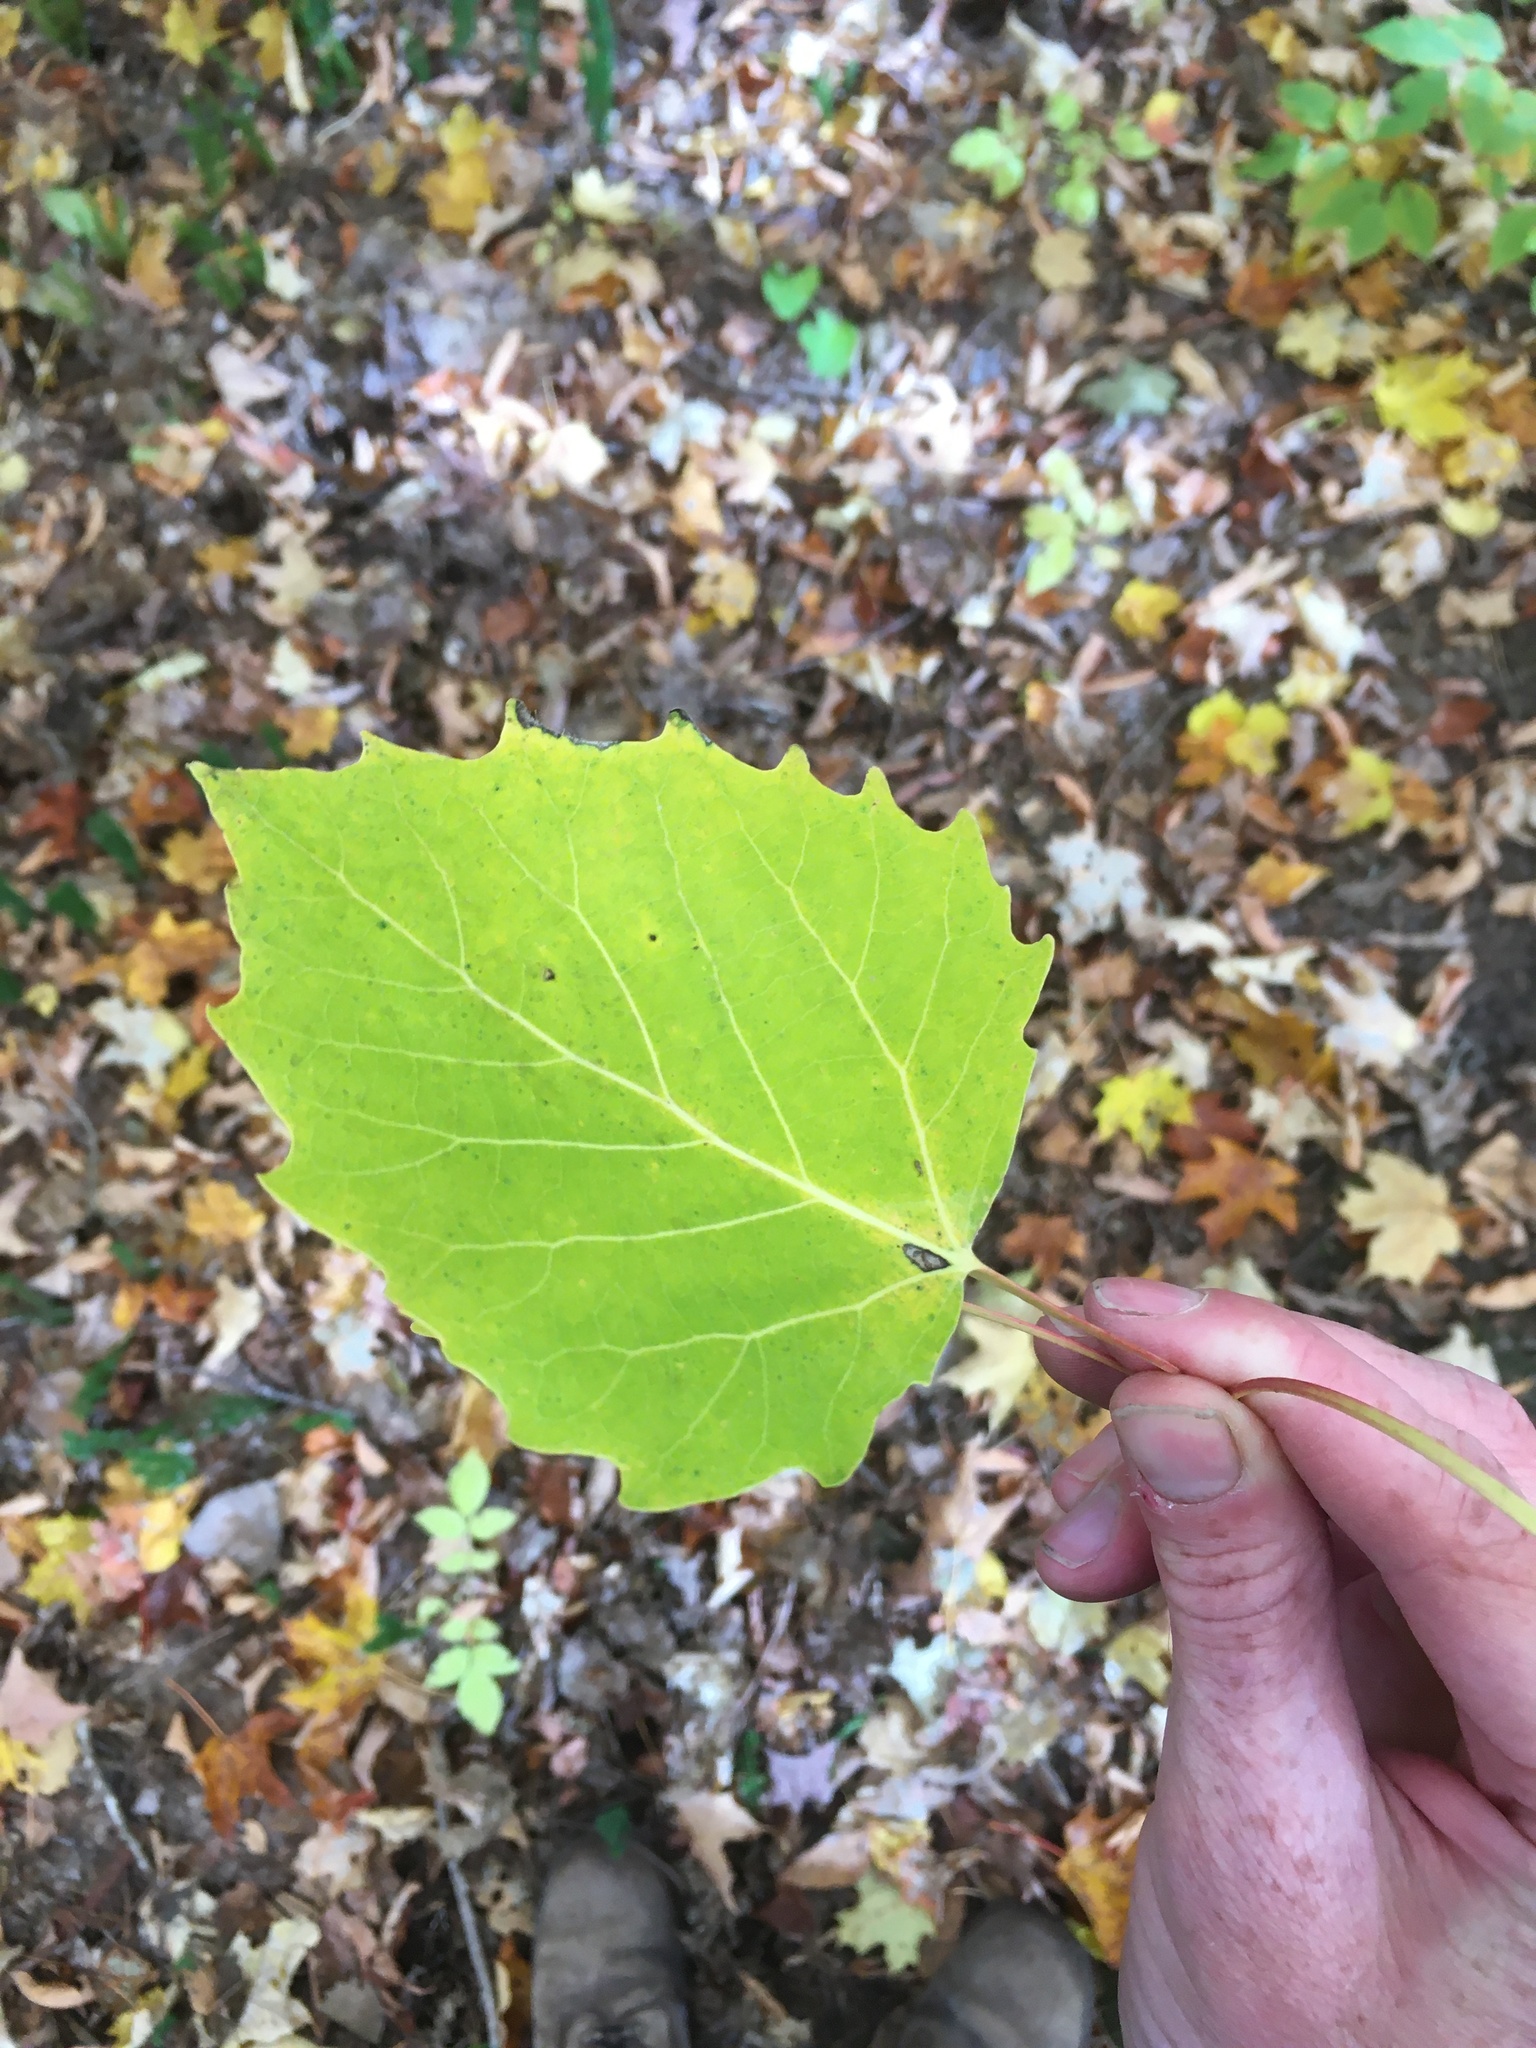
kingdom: Plantae
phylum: Tracheophyta
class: Magnoliopsida
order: Malpighiales
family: Salicaceae
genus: Populus
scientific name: Populus grandidentata
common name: Bigtooth aspen
